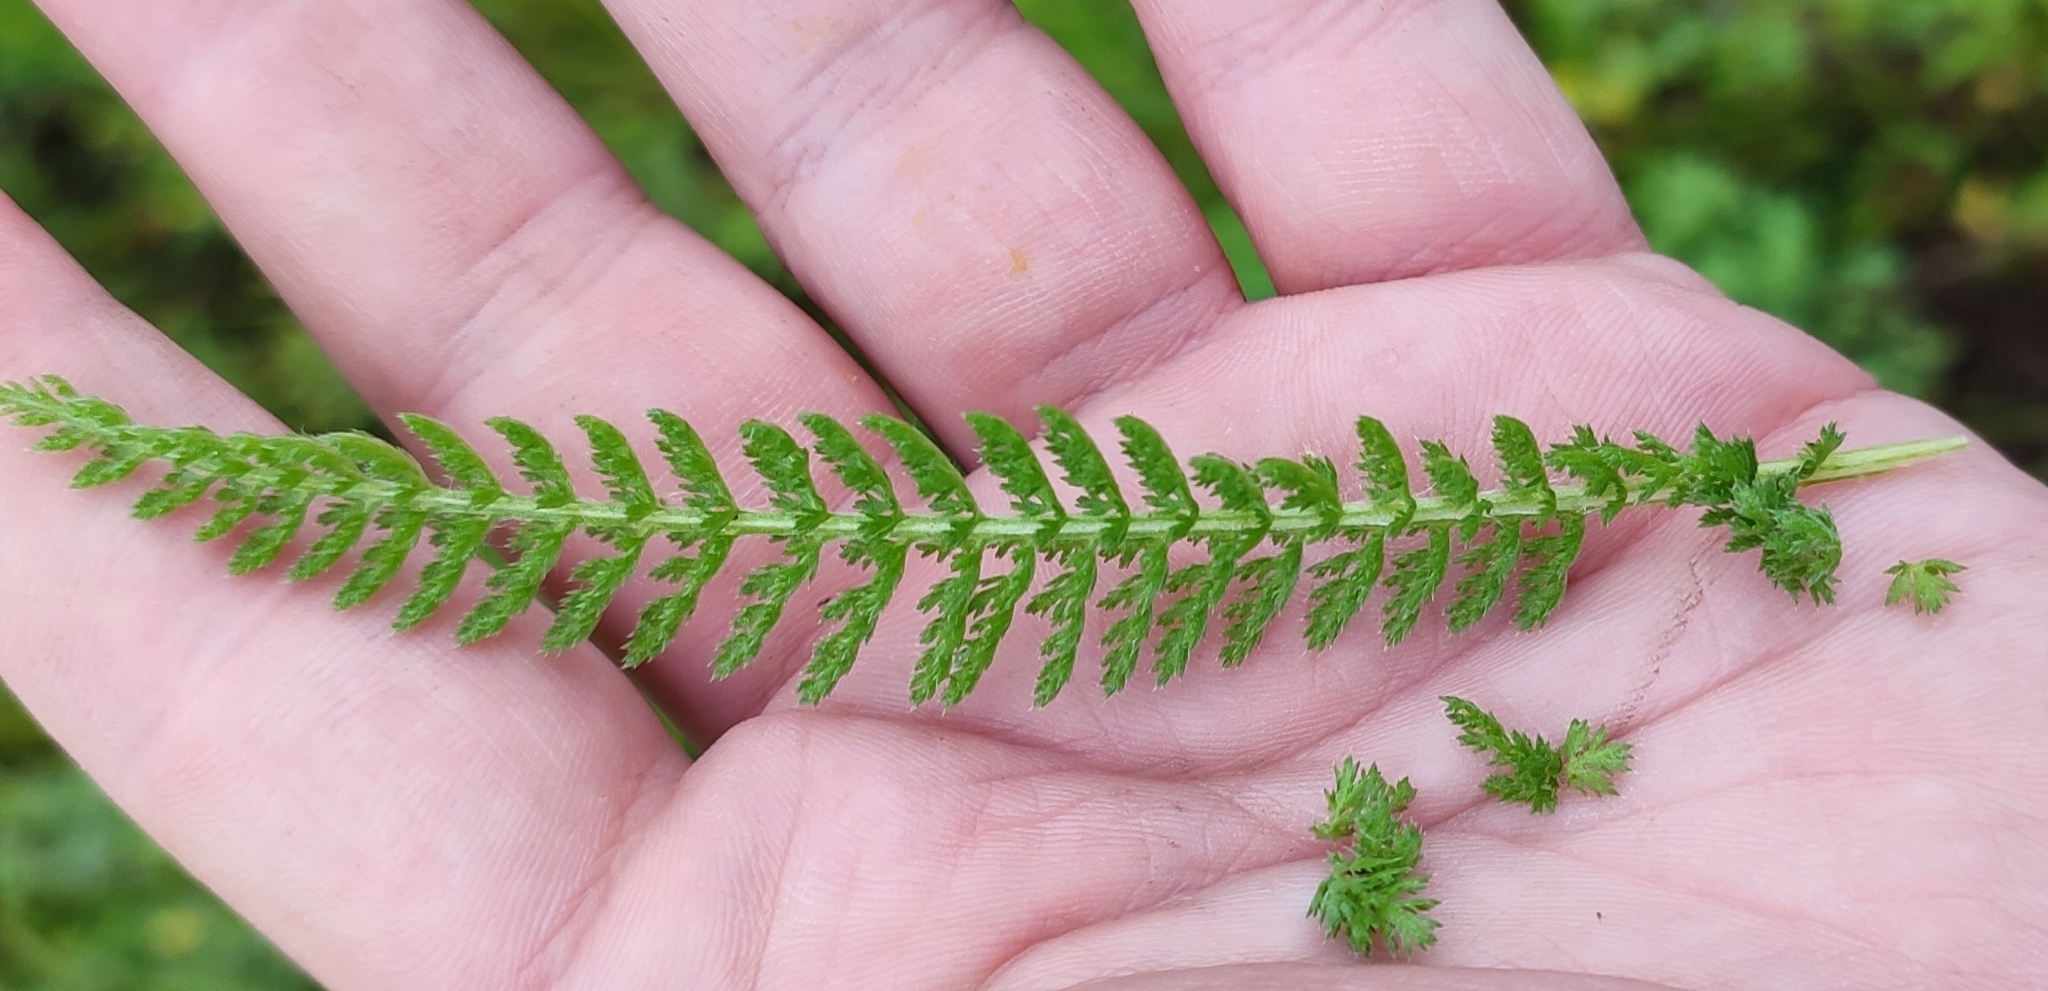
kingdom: Plantae
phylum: Tracheophyta
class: Magnoliopsida
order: Asterales
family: Asteraceae
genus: Achillea
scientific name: Achillea millefolium
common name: Yarrow
